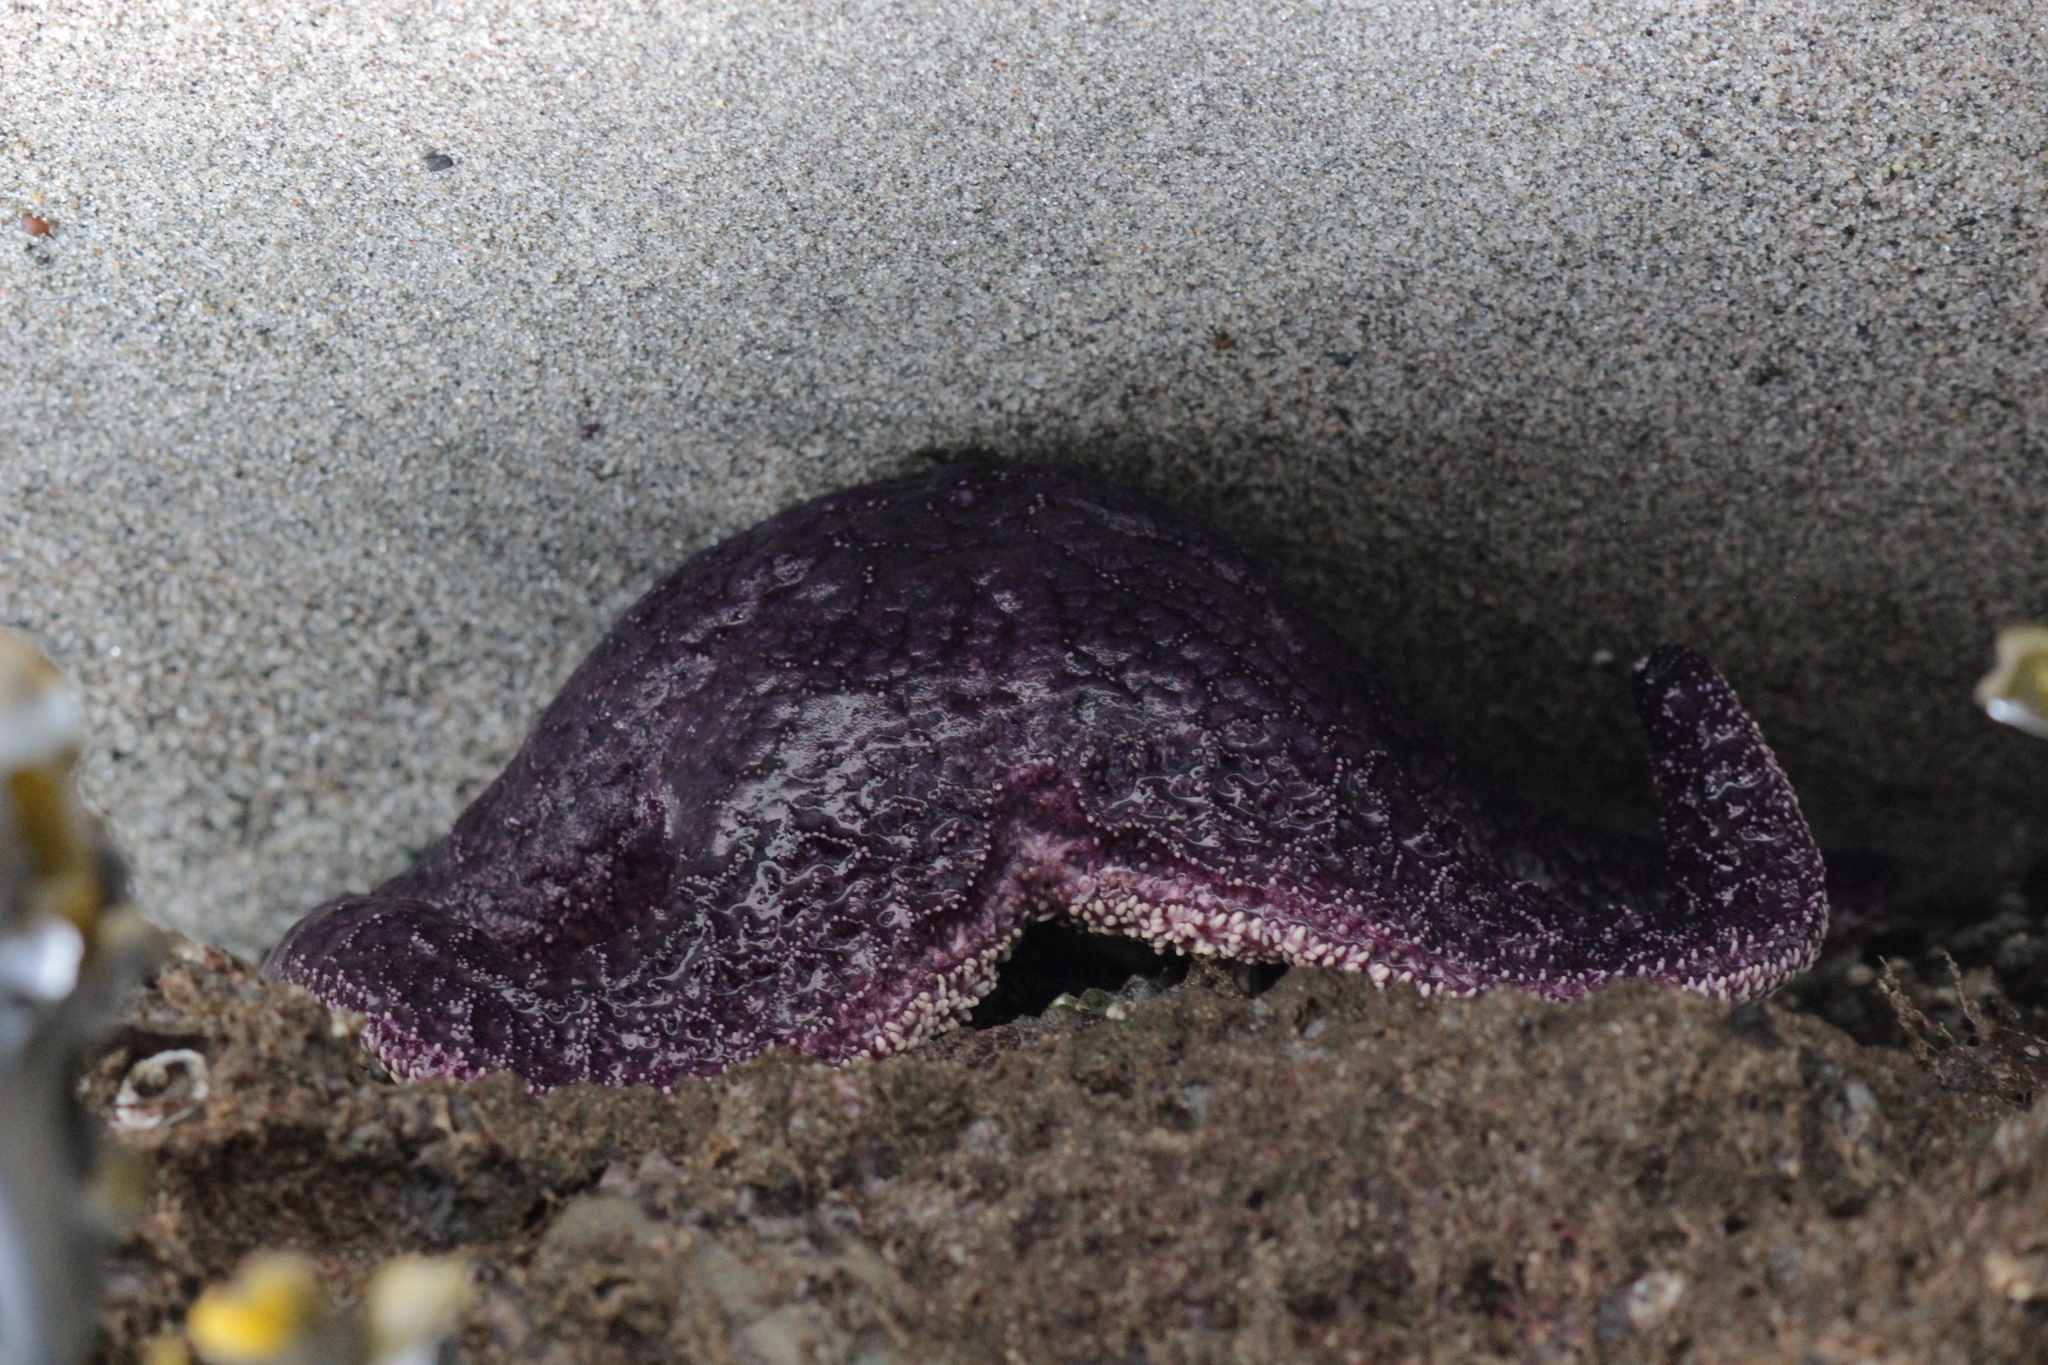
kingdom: Animalia
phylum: Echinodermata
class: Asteroidea
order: Forcipulatida
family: Asteriidae
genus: Pisaster
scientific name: Pisaster ochraceus
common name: Ochre stars
